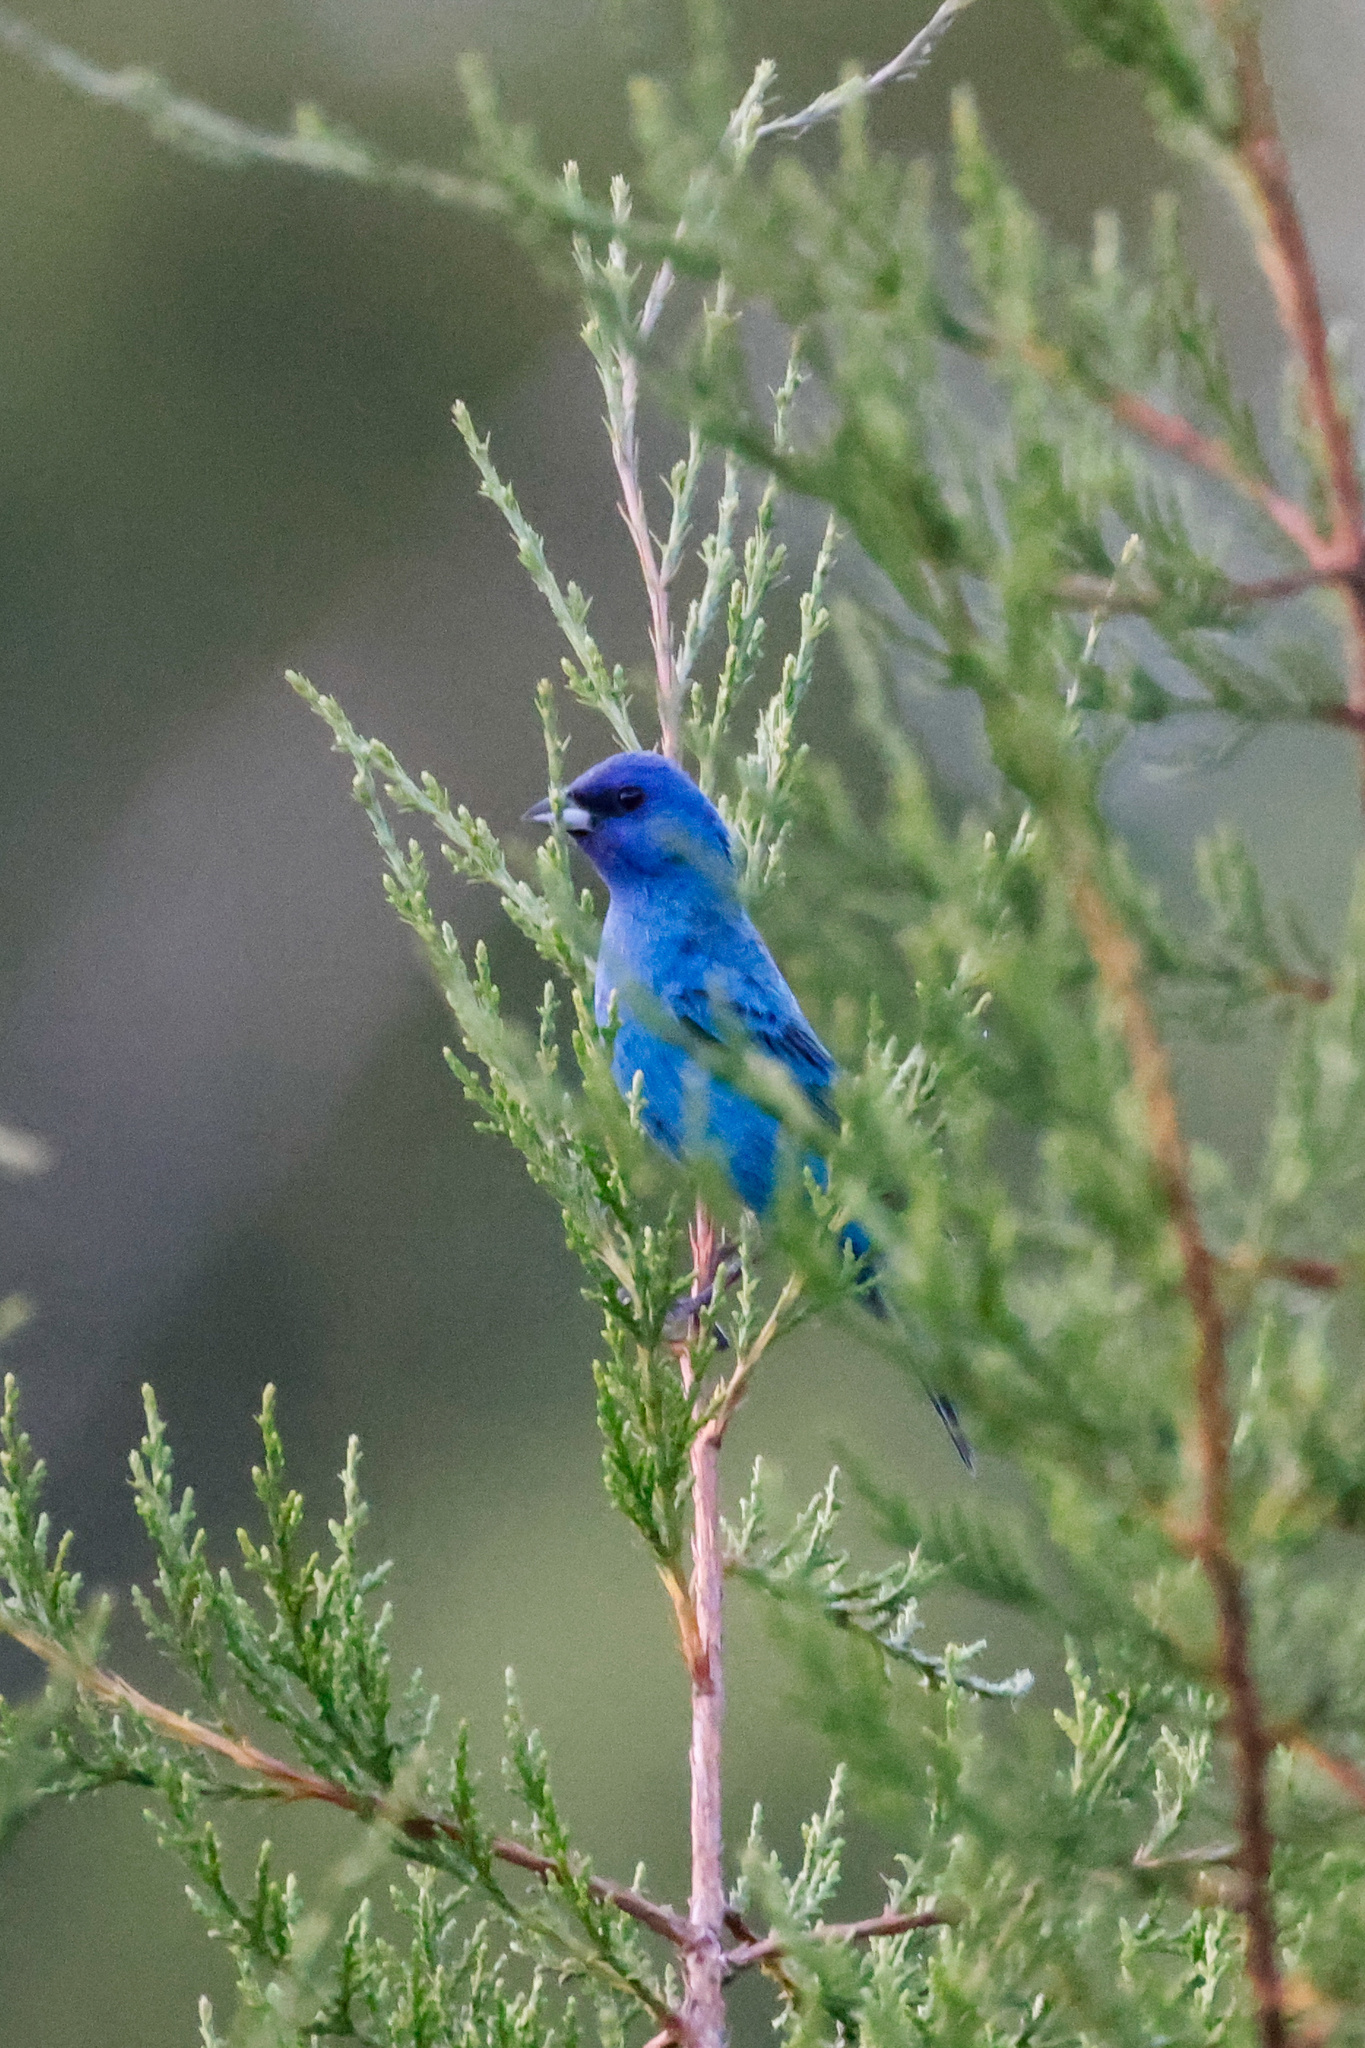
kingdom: Animalia
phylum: Chordata
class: Aves
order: Passeriformes
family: Cardinalidae
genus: Passerina
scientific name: Passerina cyanea
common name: Indigo bunting
